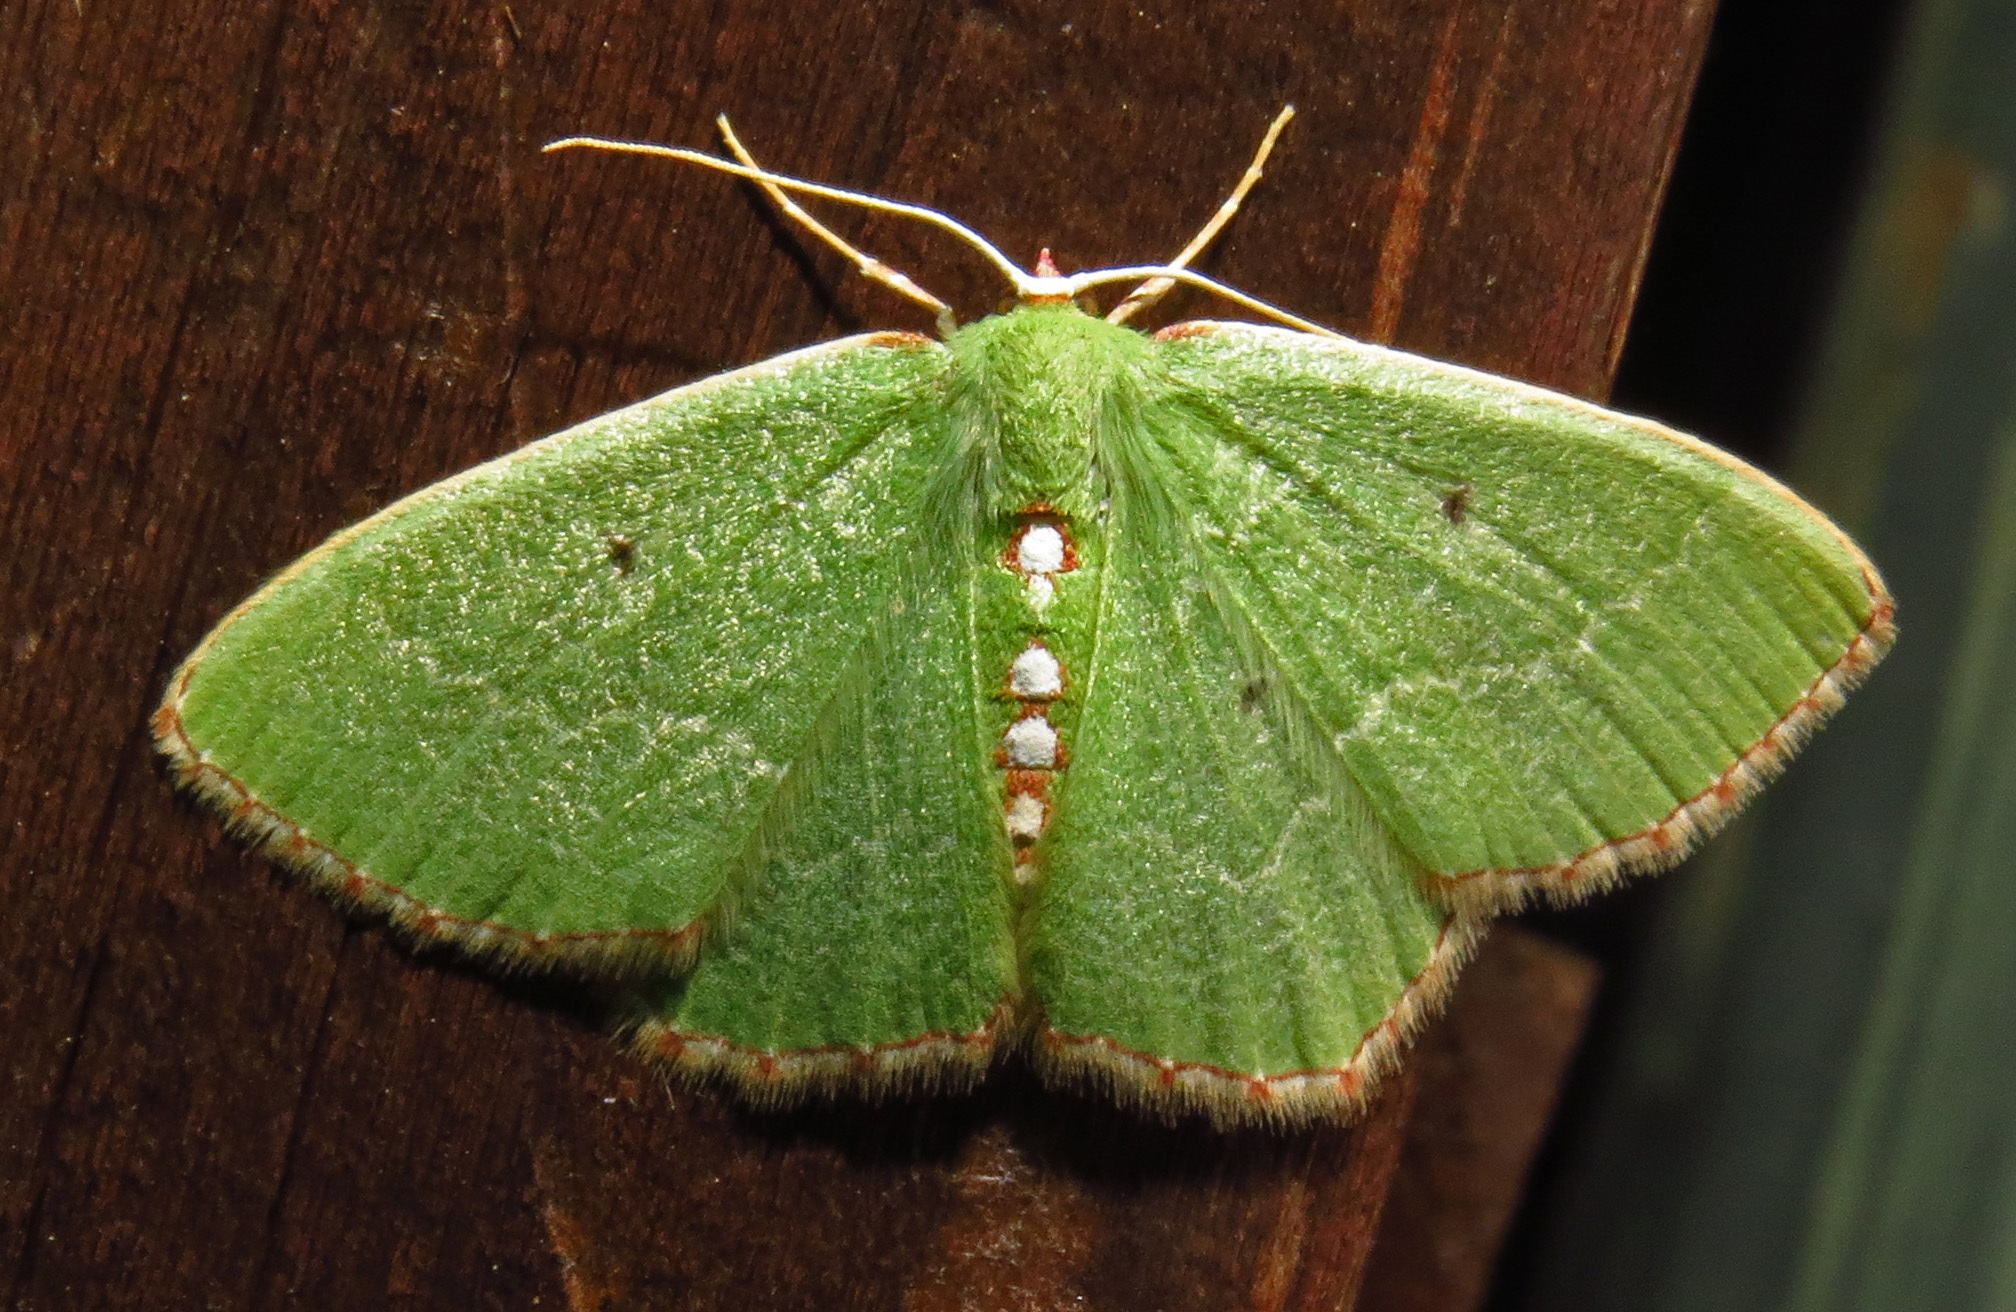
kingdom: Animalia
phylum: Arthropoda
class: Insecta
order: Lepidoptera
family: Geometridae
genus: Nemoria
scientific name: Nemoria lixaria
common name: Red-bordered emerald
